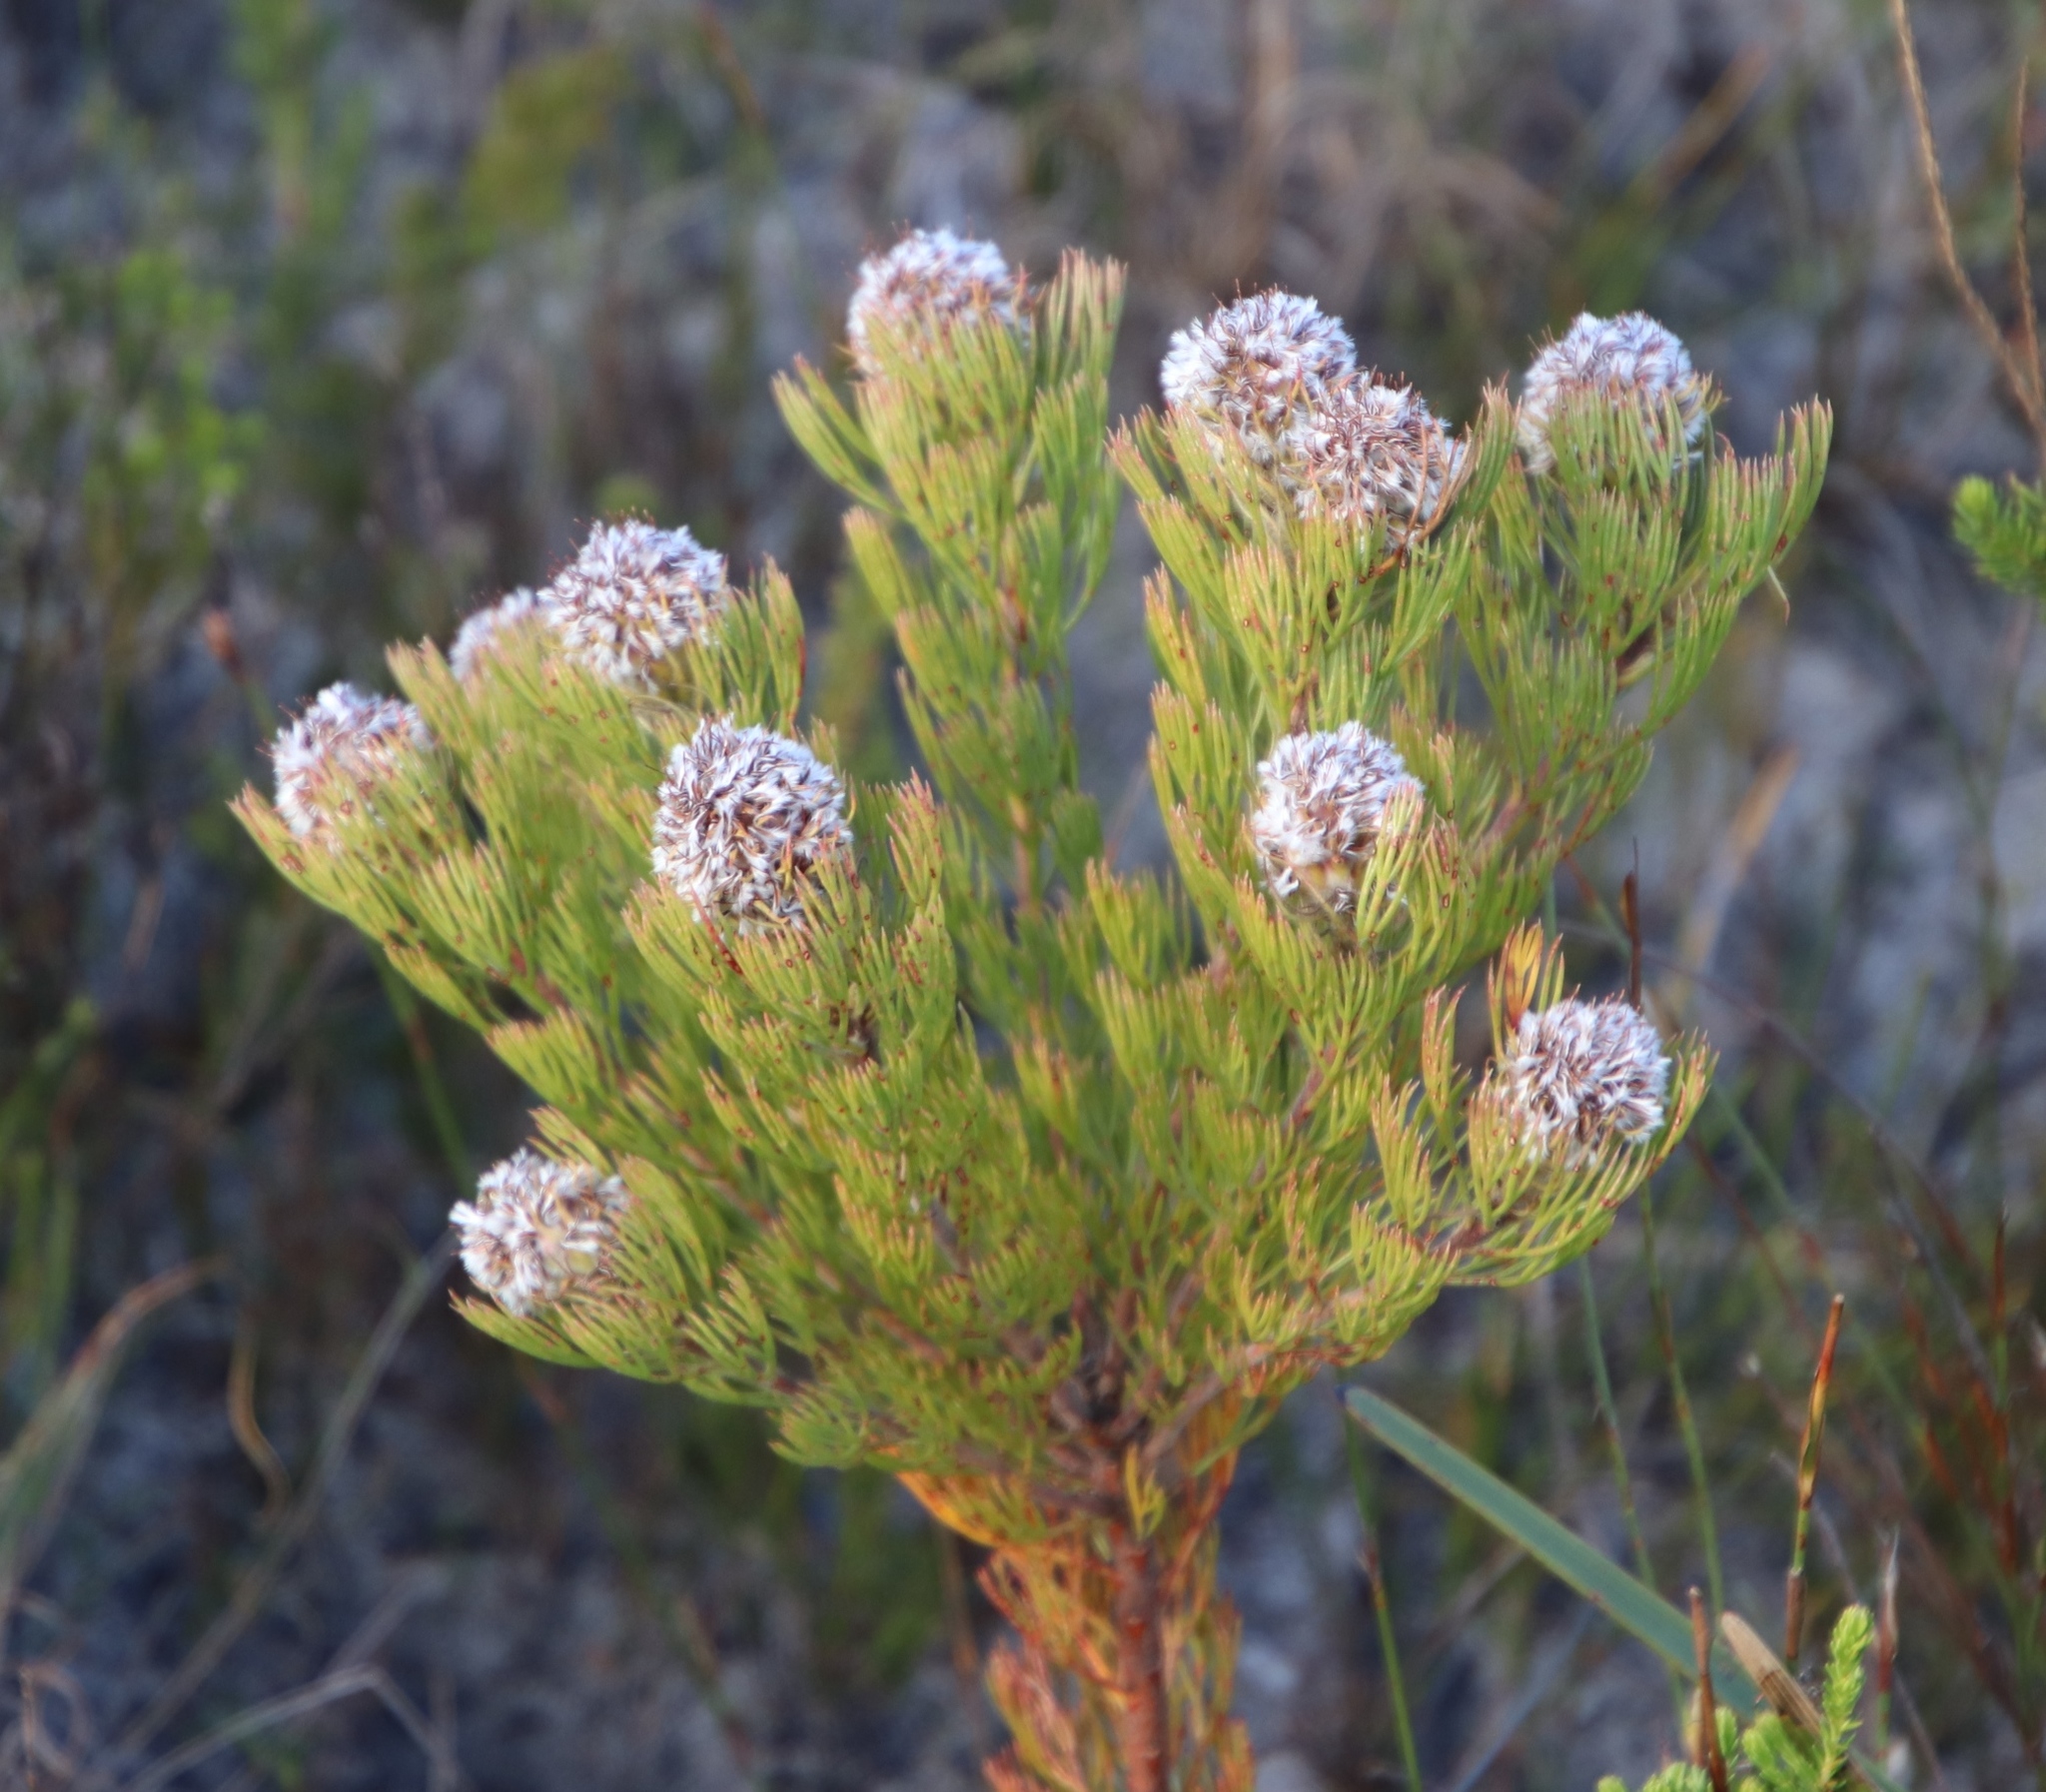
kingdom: Plantae
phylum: Tracheophyta
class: Magnoliopsida
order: Proteales
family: Proteaceae
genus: Serruria
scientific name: Serruria villosa
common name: Golden spiderhead
